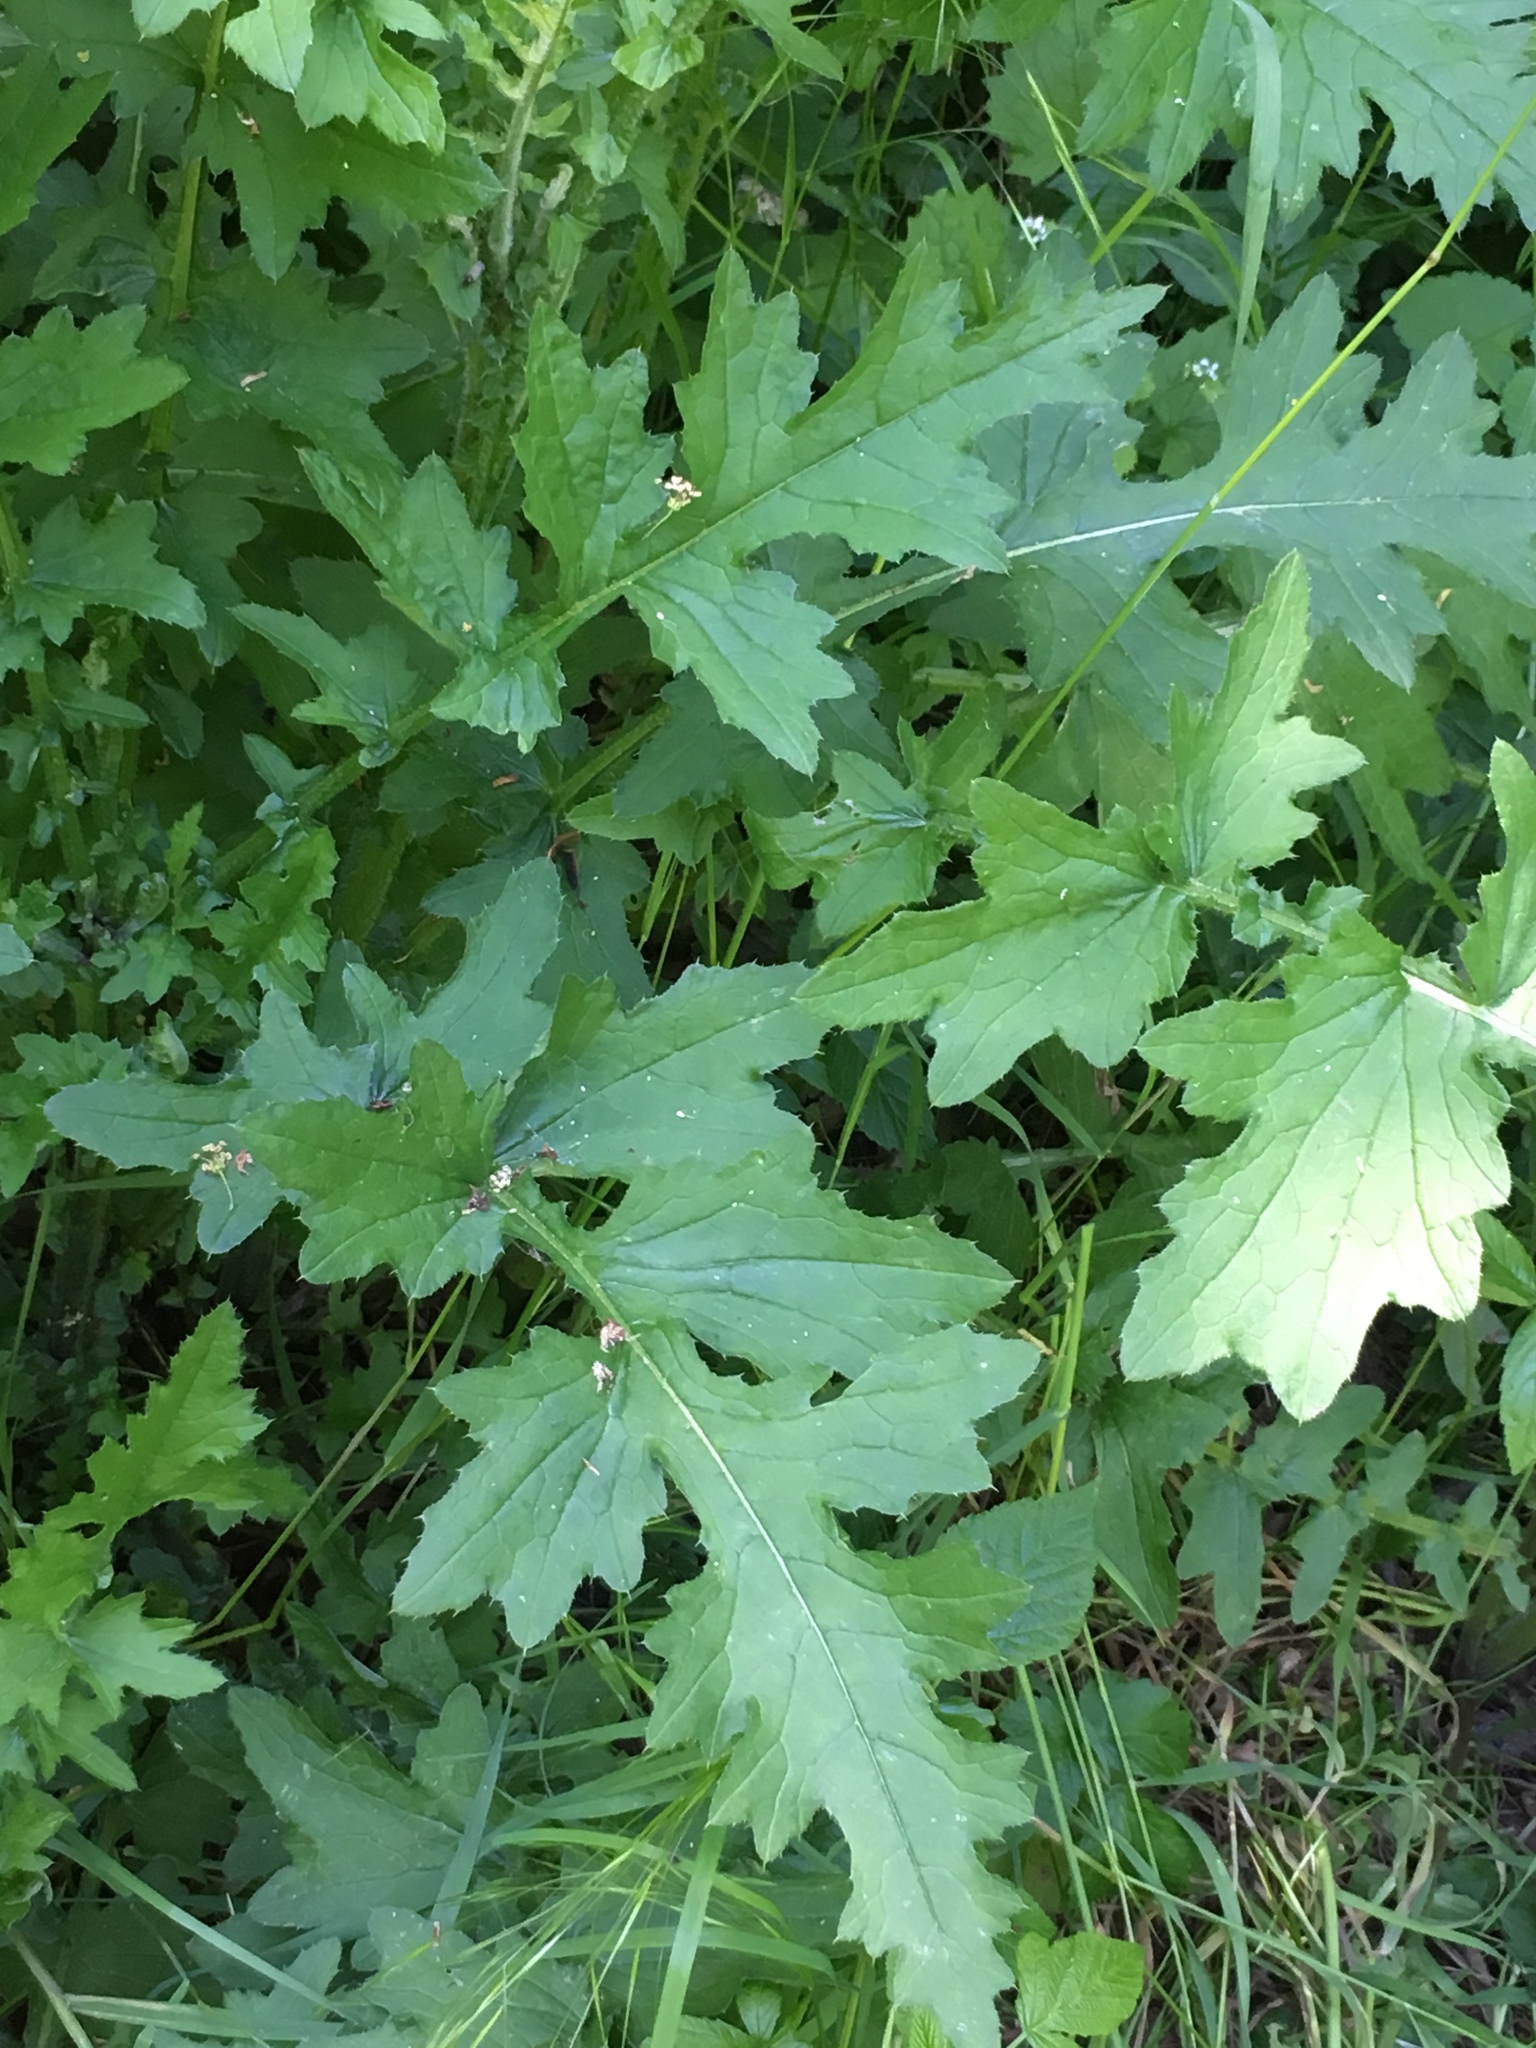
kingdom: Plantae
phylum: Tracheophyta
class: Magnoliopsida
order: Asterales
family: Asteraceae
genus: Carduus
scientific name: Carduus crispus
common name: Welted thistle
